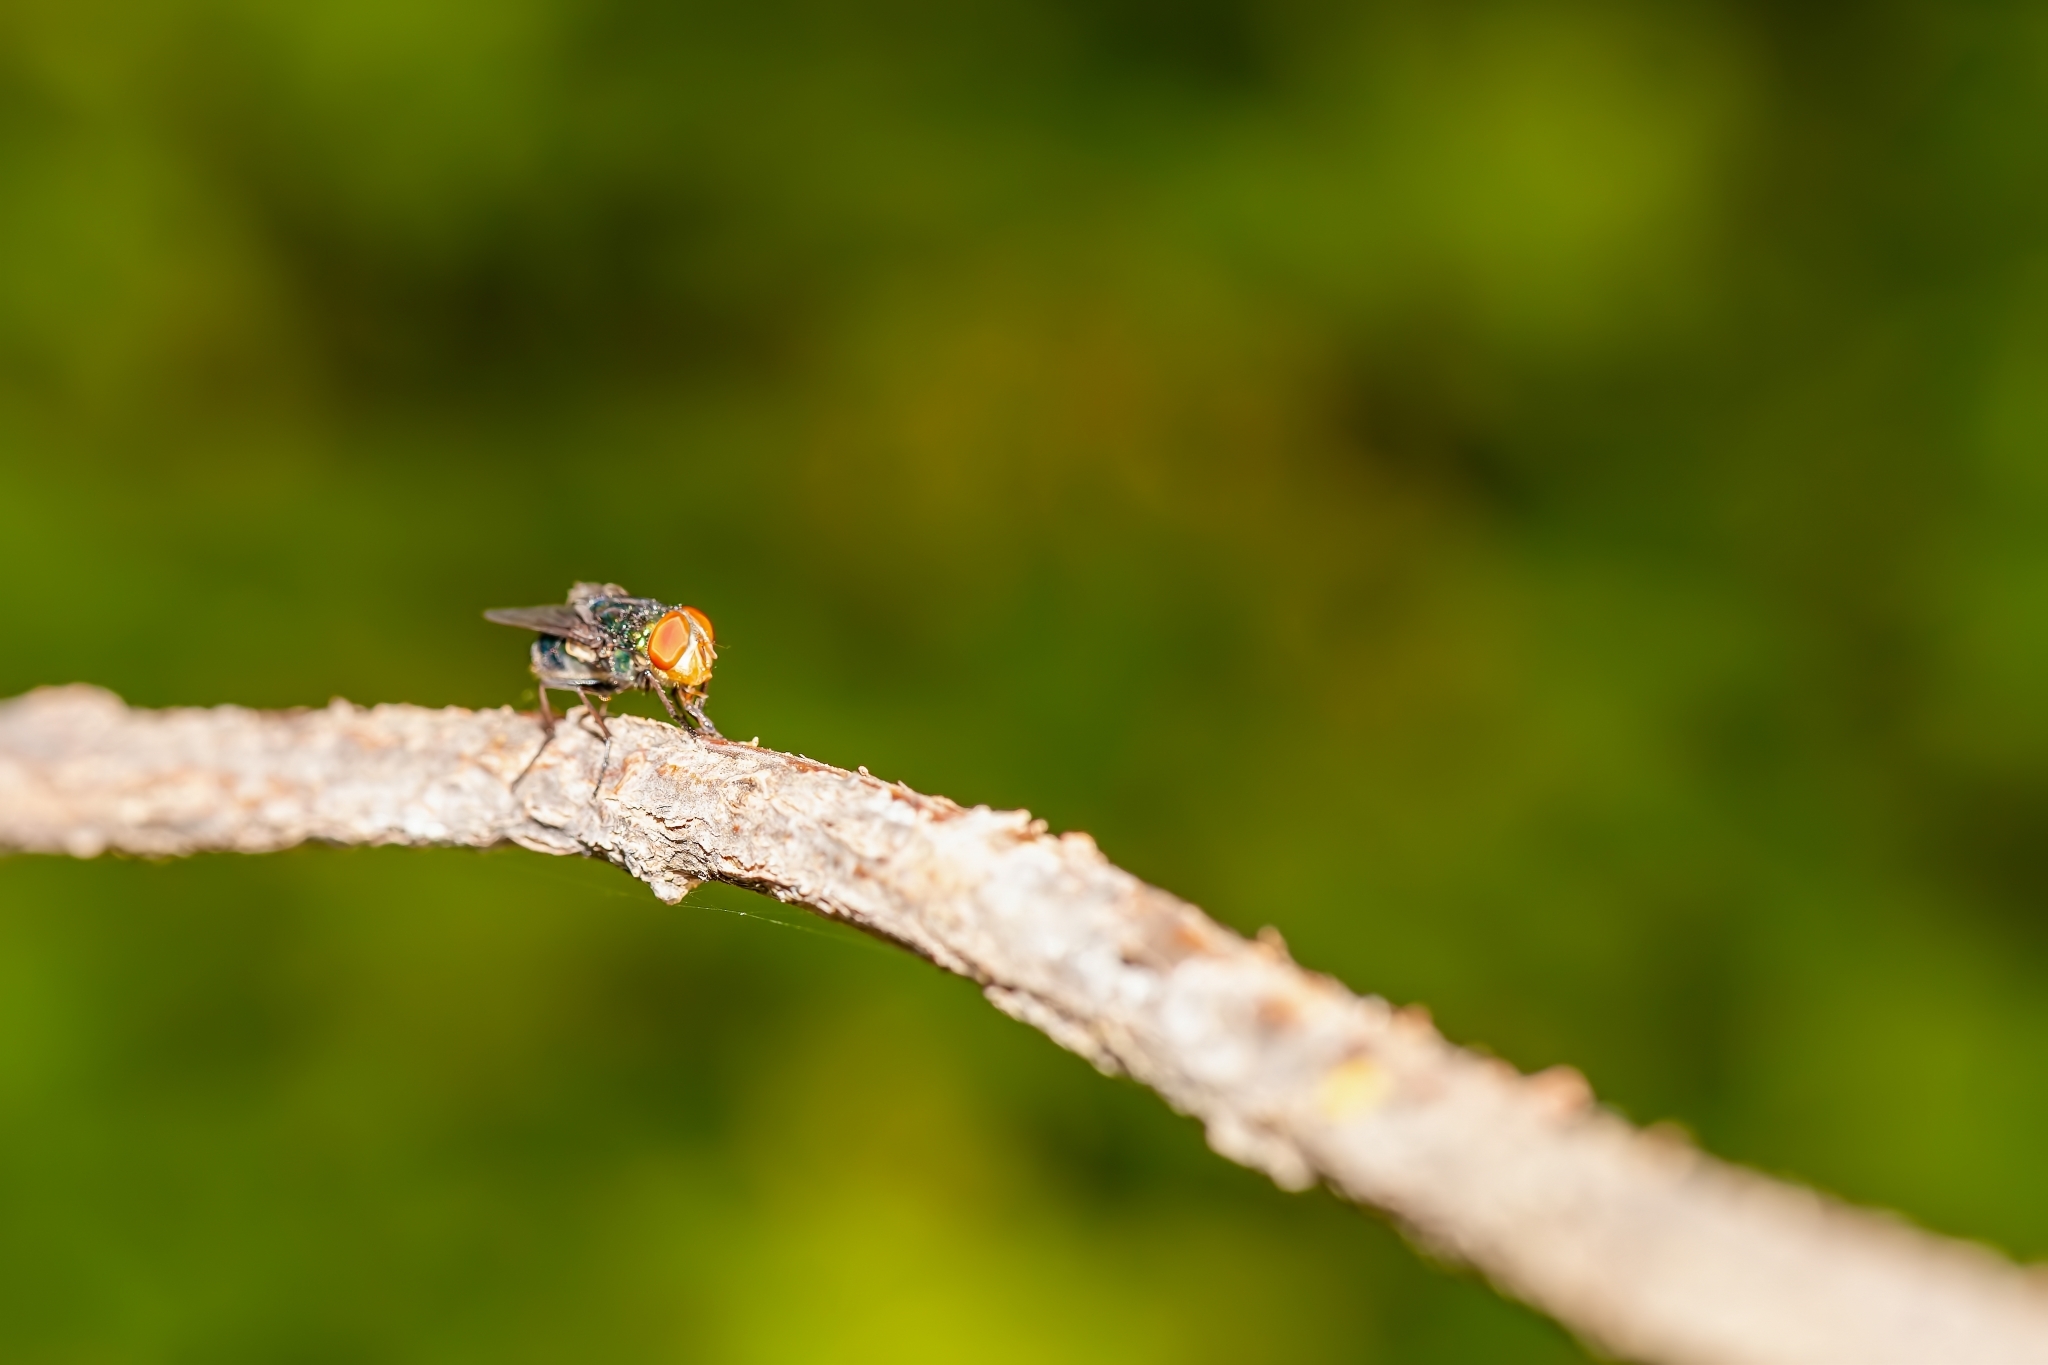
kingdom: Animalia
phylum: Arthropoda
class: Insecta
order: Diptera
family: Calliphoridae
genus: Cochliomyia
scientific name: Cochliomyia macellaria
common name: Secondary screwworm
